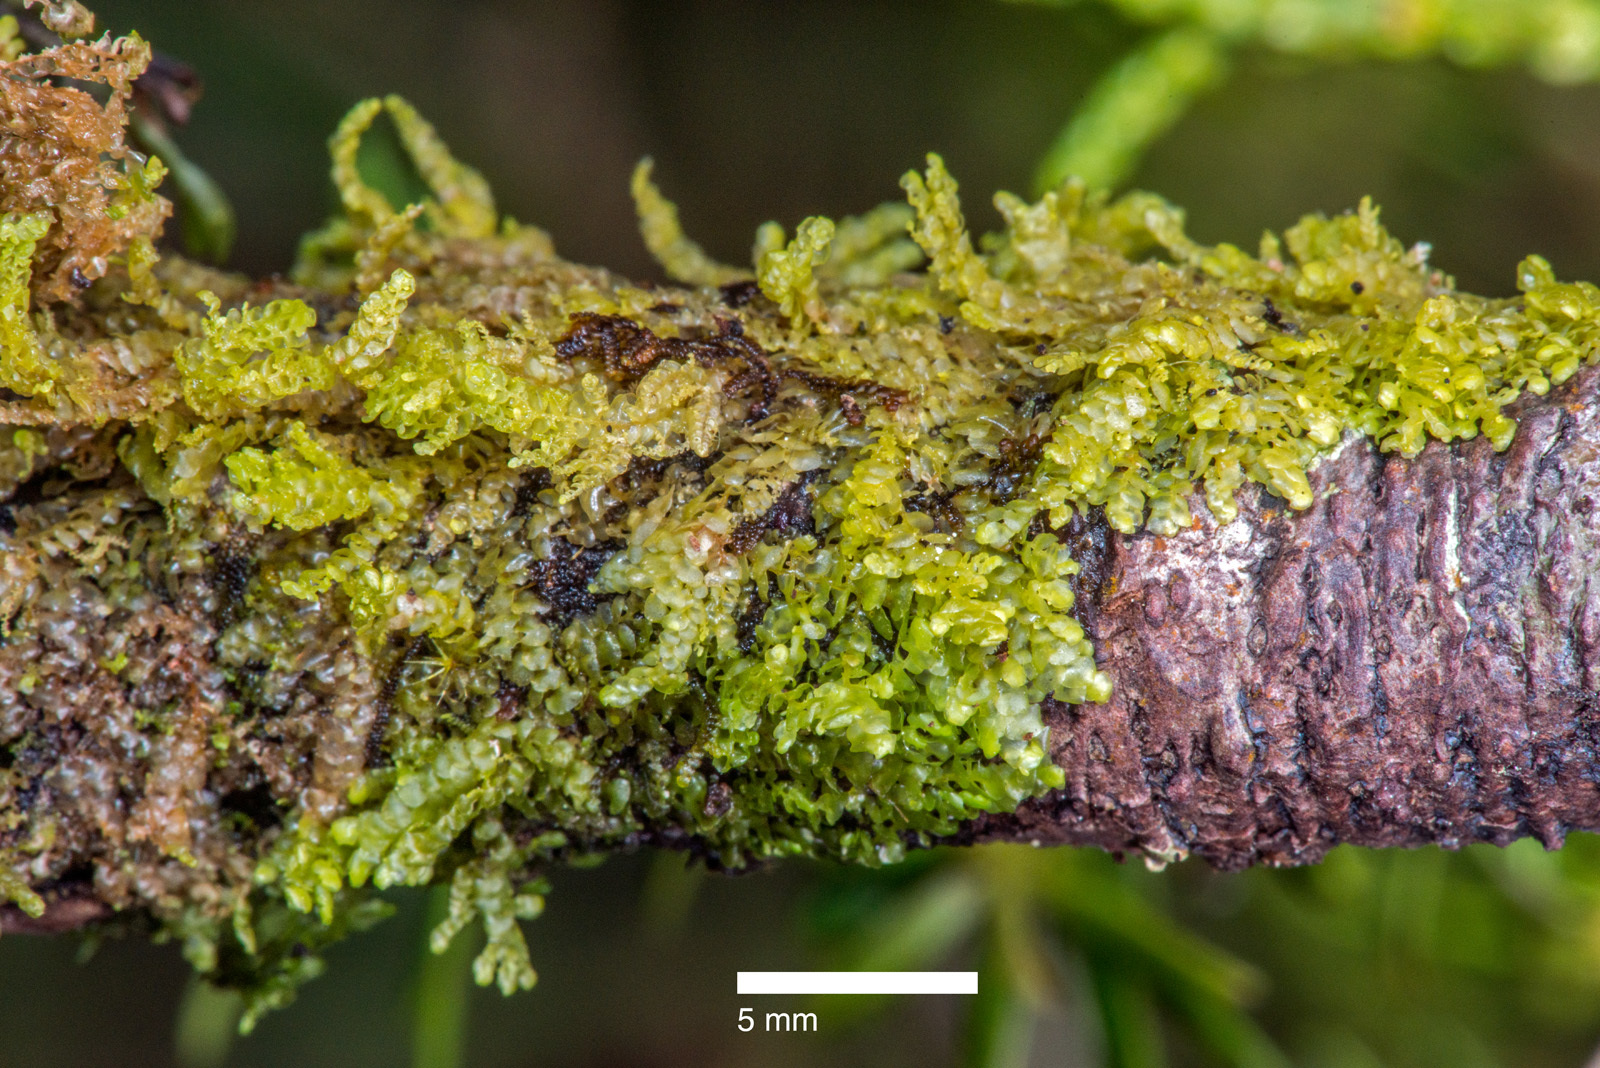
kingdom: Plantae
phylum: Marchantiophyta
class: Jungermanniopsida
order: Porellales
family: Radulaceae
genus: Radula
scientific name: Radula splendida
